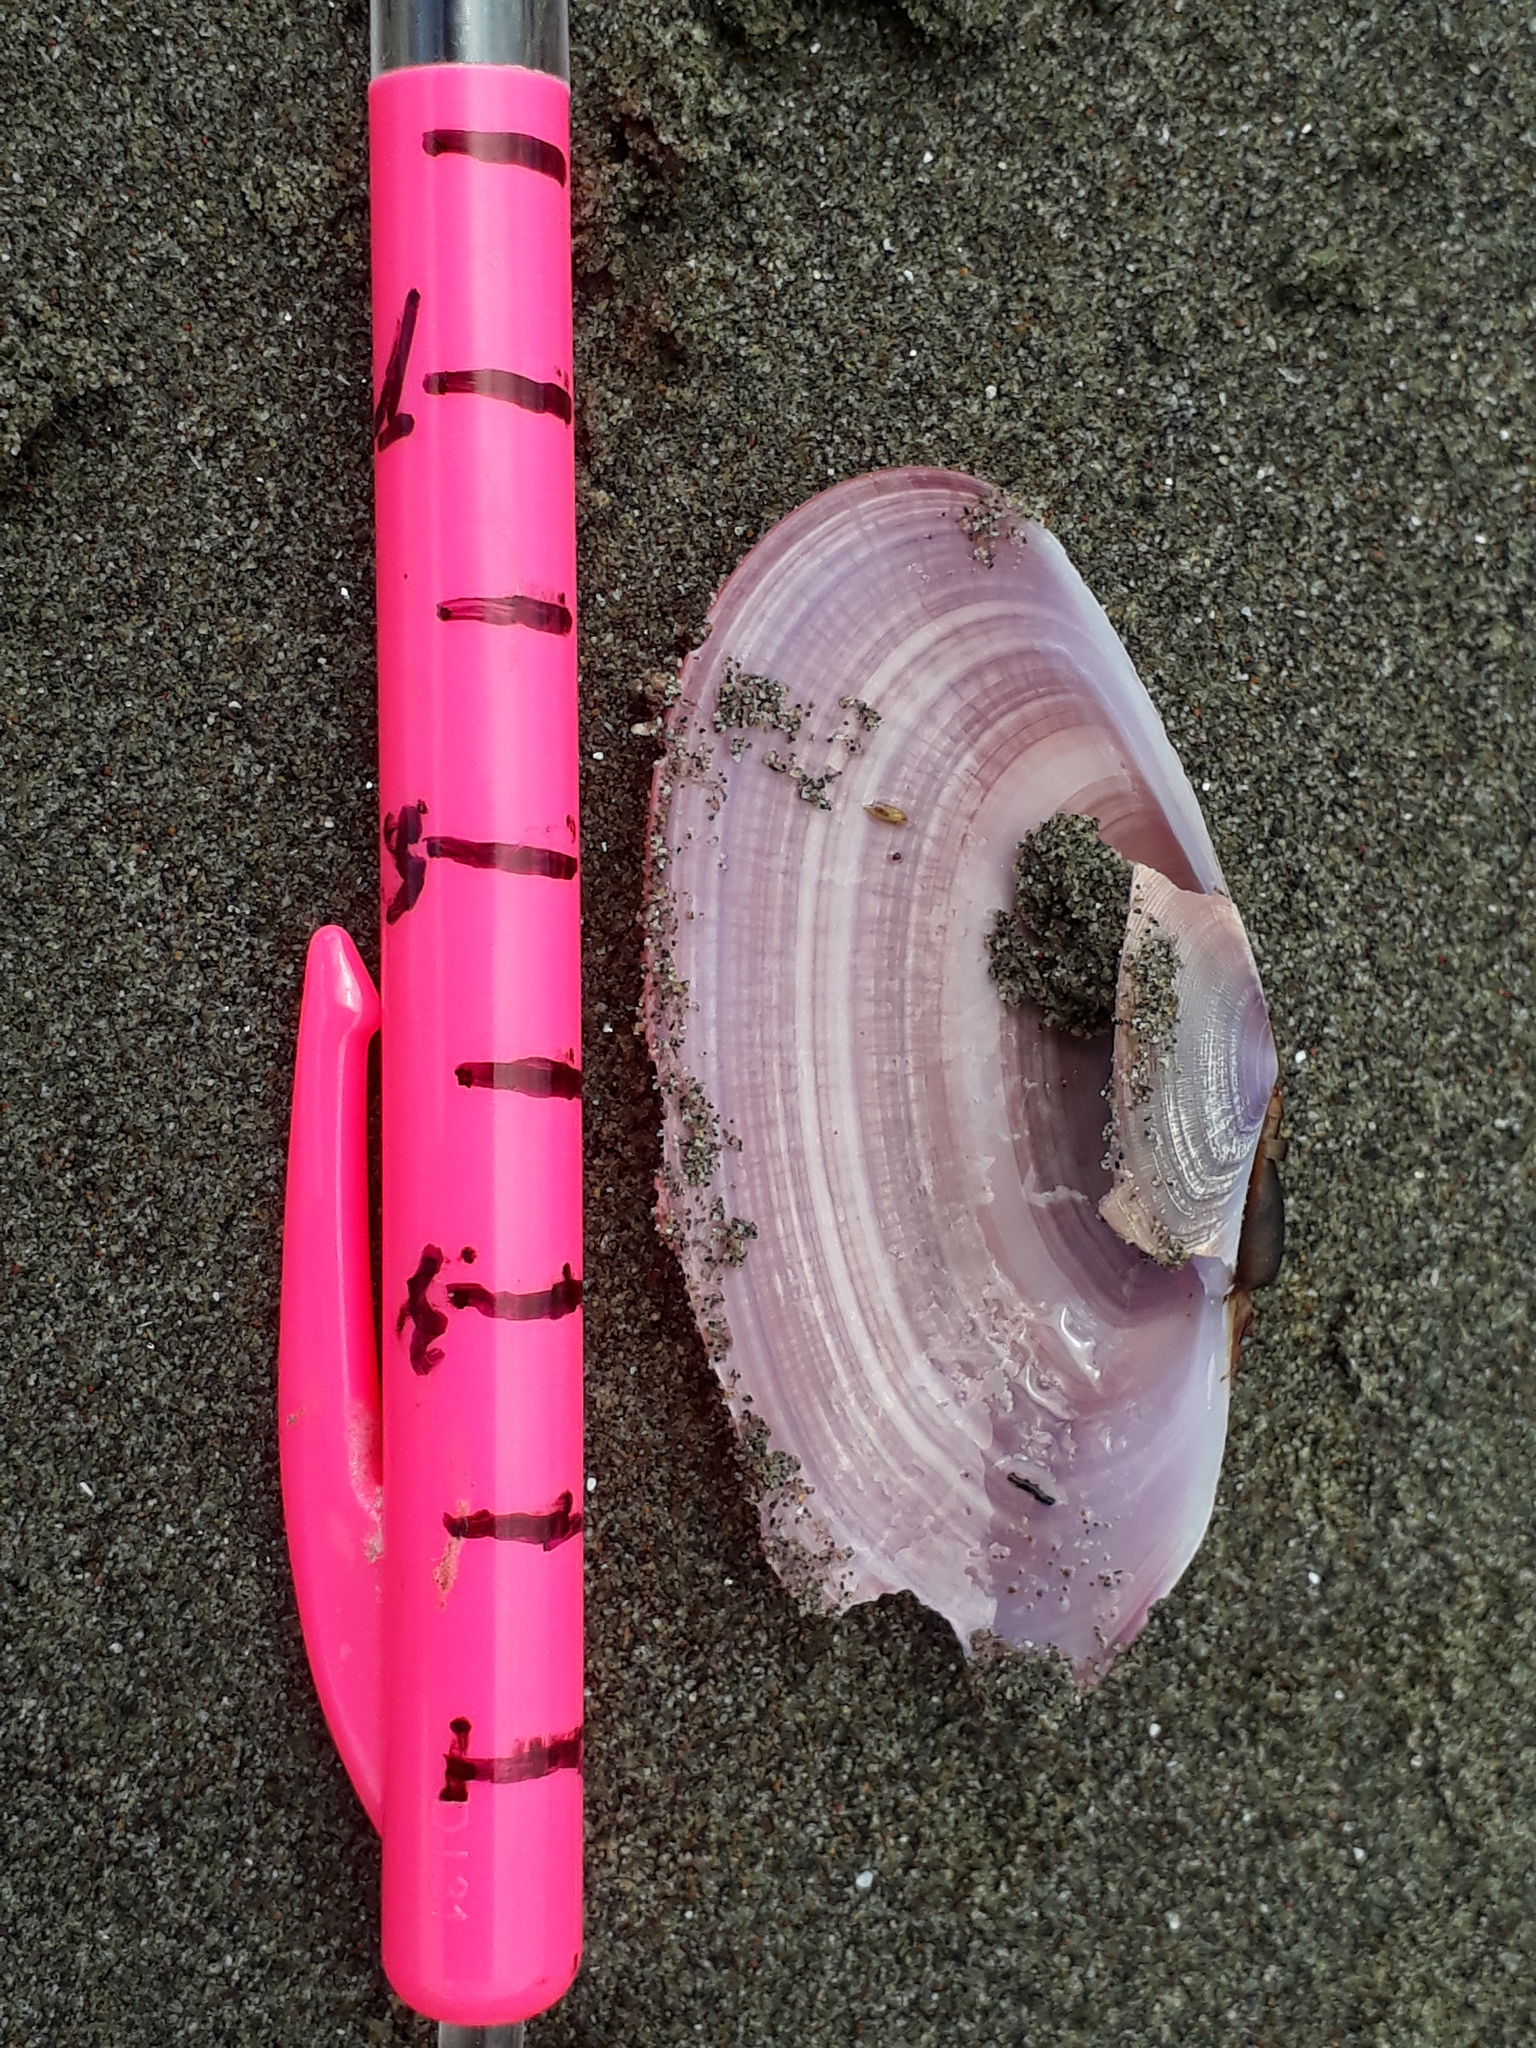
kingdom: Animalia
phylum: Mollusca
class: Bivalvia
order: Cardiida
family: Psammobiidae
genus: Gari
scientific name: Gari lineolata
